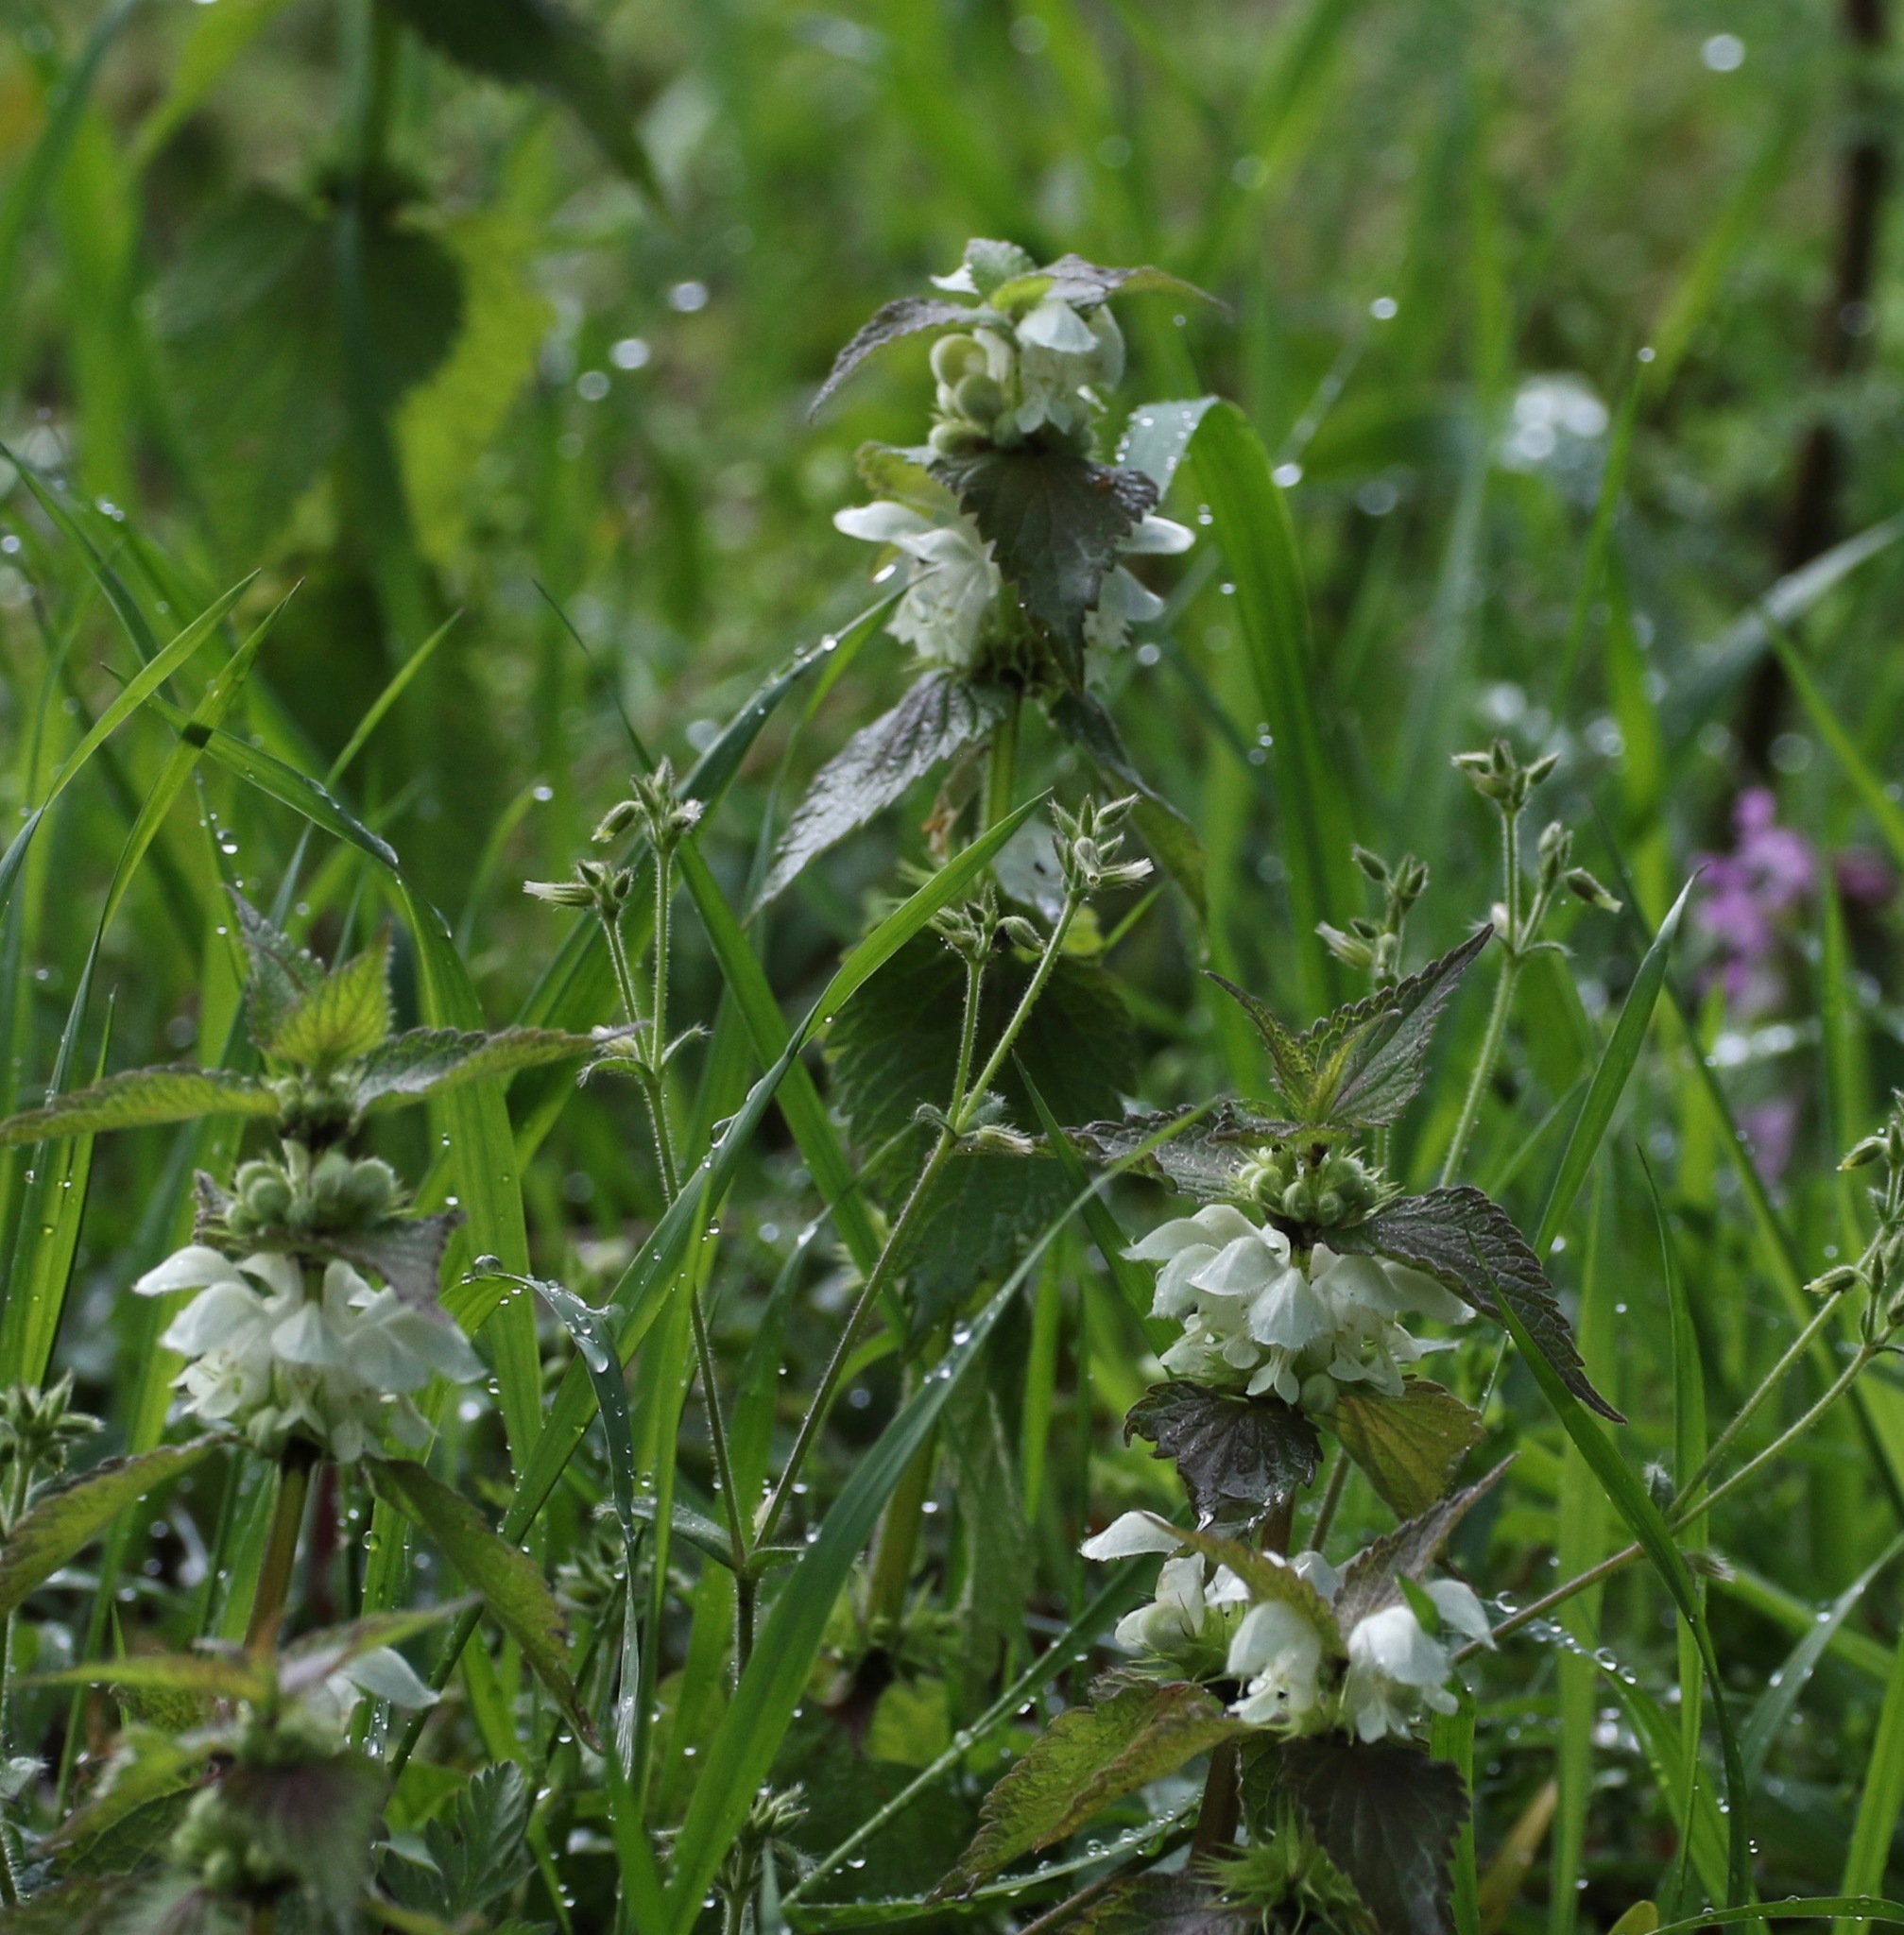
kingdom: Plantae
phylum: Tracheophyta
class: Magnoliopsida
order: Lamiales
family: Lamiaceae
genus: Lamium
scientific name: Lamium album
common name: White dead-nettle
